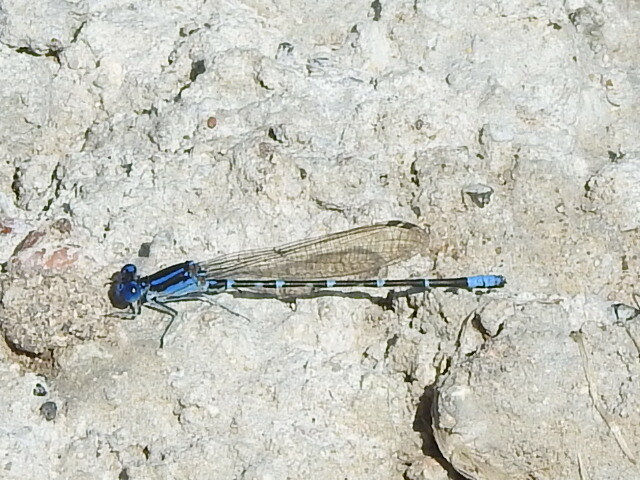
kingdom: Animalia
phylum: Arthropoda
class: Insecta
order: Odonata
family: Coenagrionidae
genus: Argia
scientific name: Argia sedula
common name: Blue-ringed dancer
